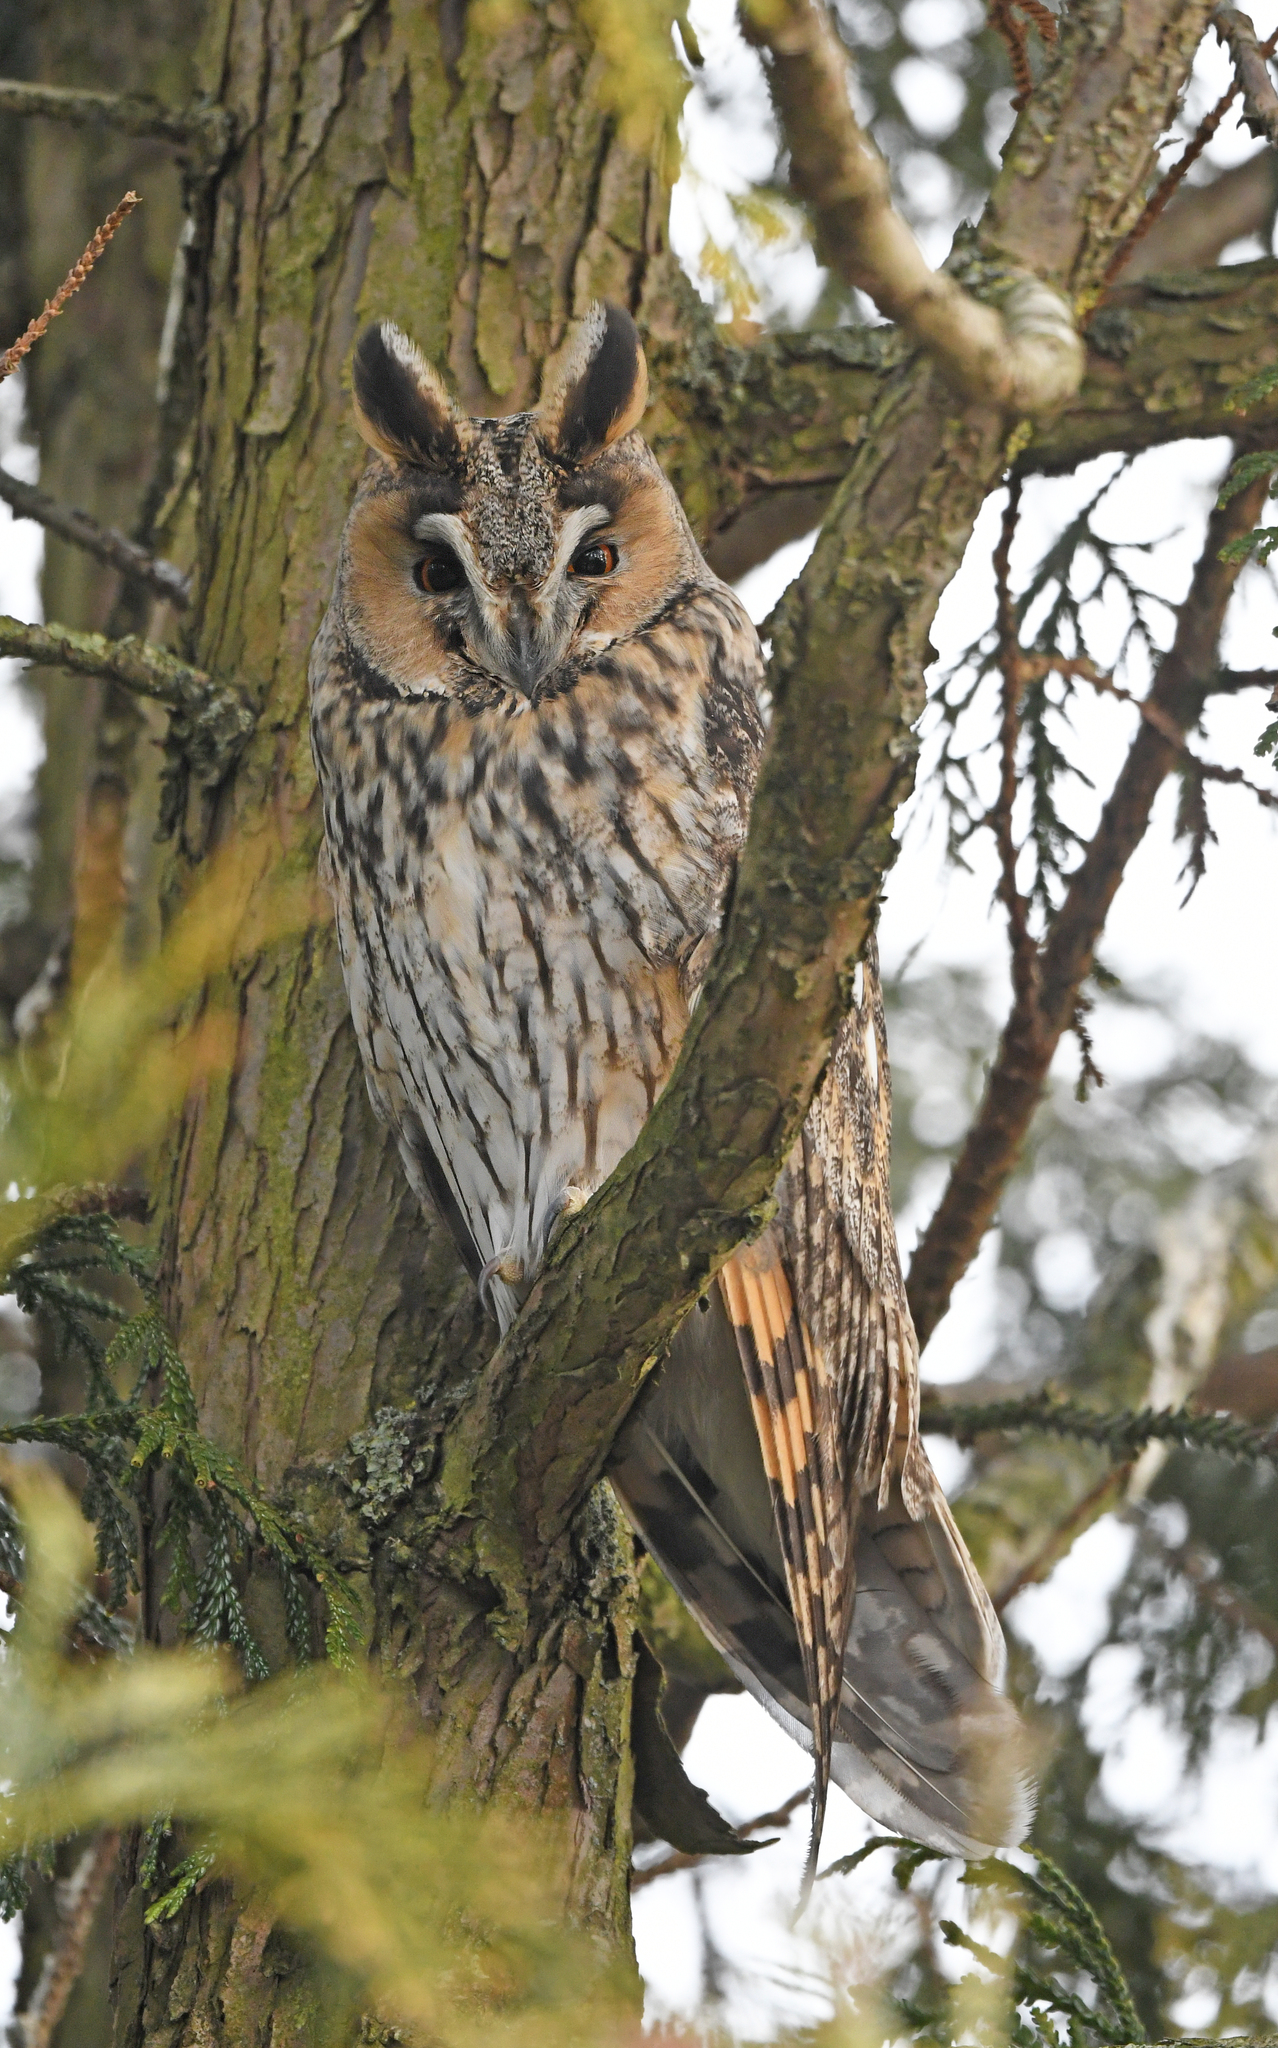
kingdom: Animalia
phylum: Chordata
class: Aves
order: Strigiformes
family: Strigidae
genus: Asio
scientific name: Asio otus
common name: Long-eared owl
